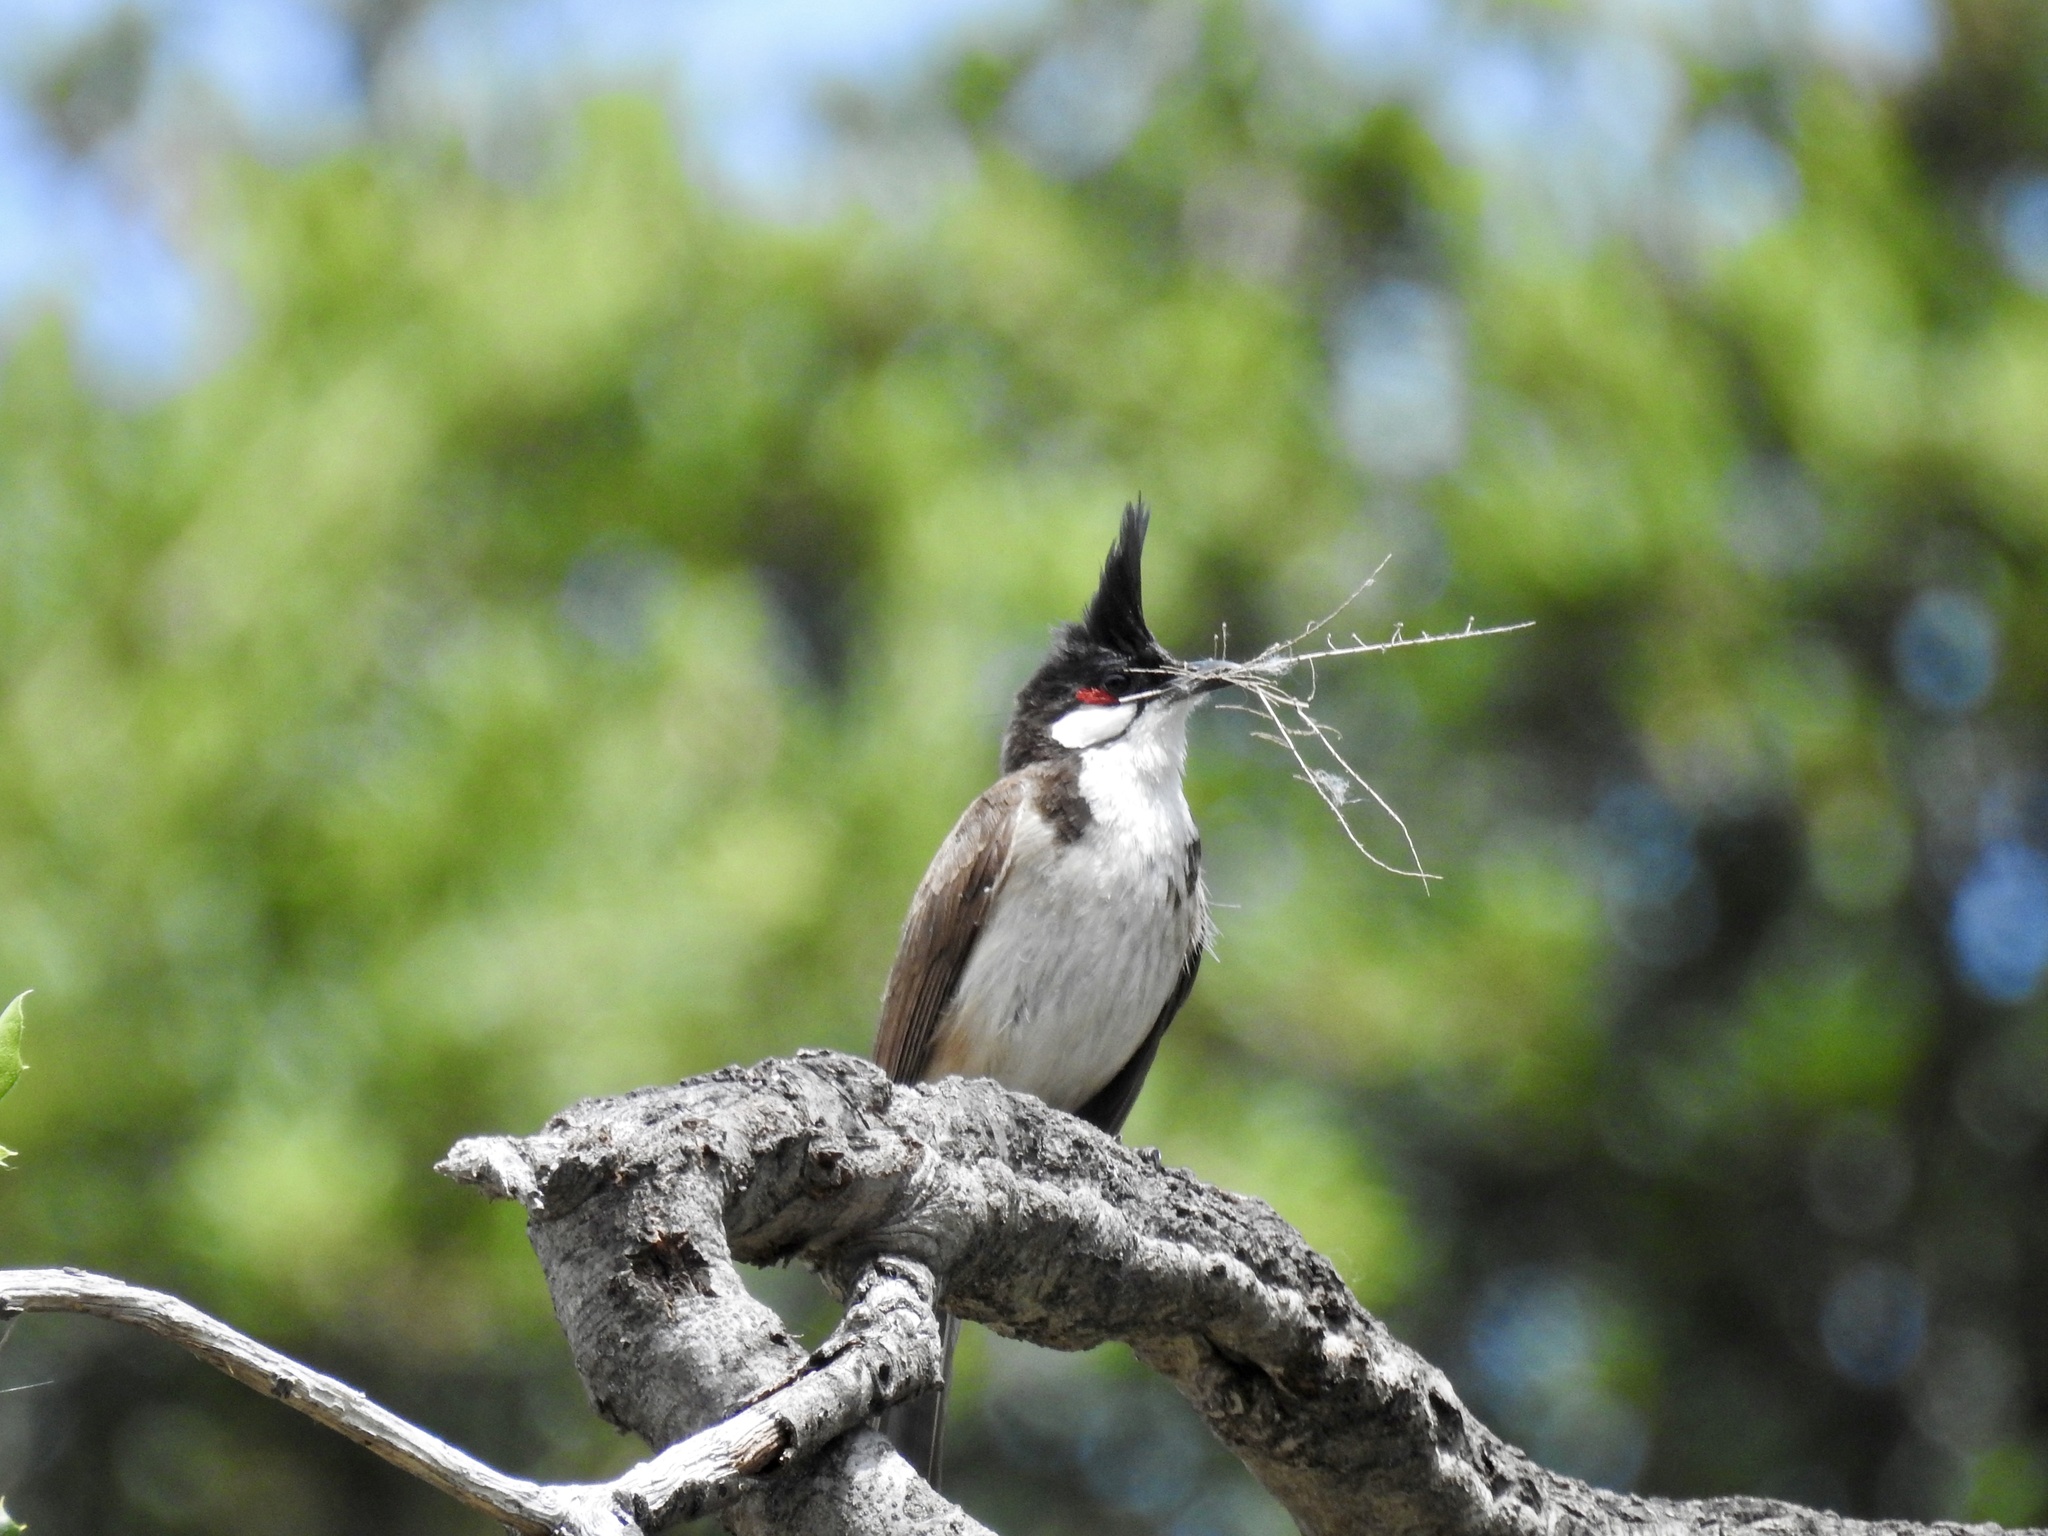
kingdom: Animalia
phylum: Chordata
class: Aves
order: Passeriformes
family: Pycnonotidae
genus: Pycnonotus
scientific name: Pycnonotus jocosus
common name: Red-whiskered bulbul
